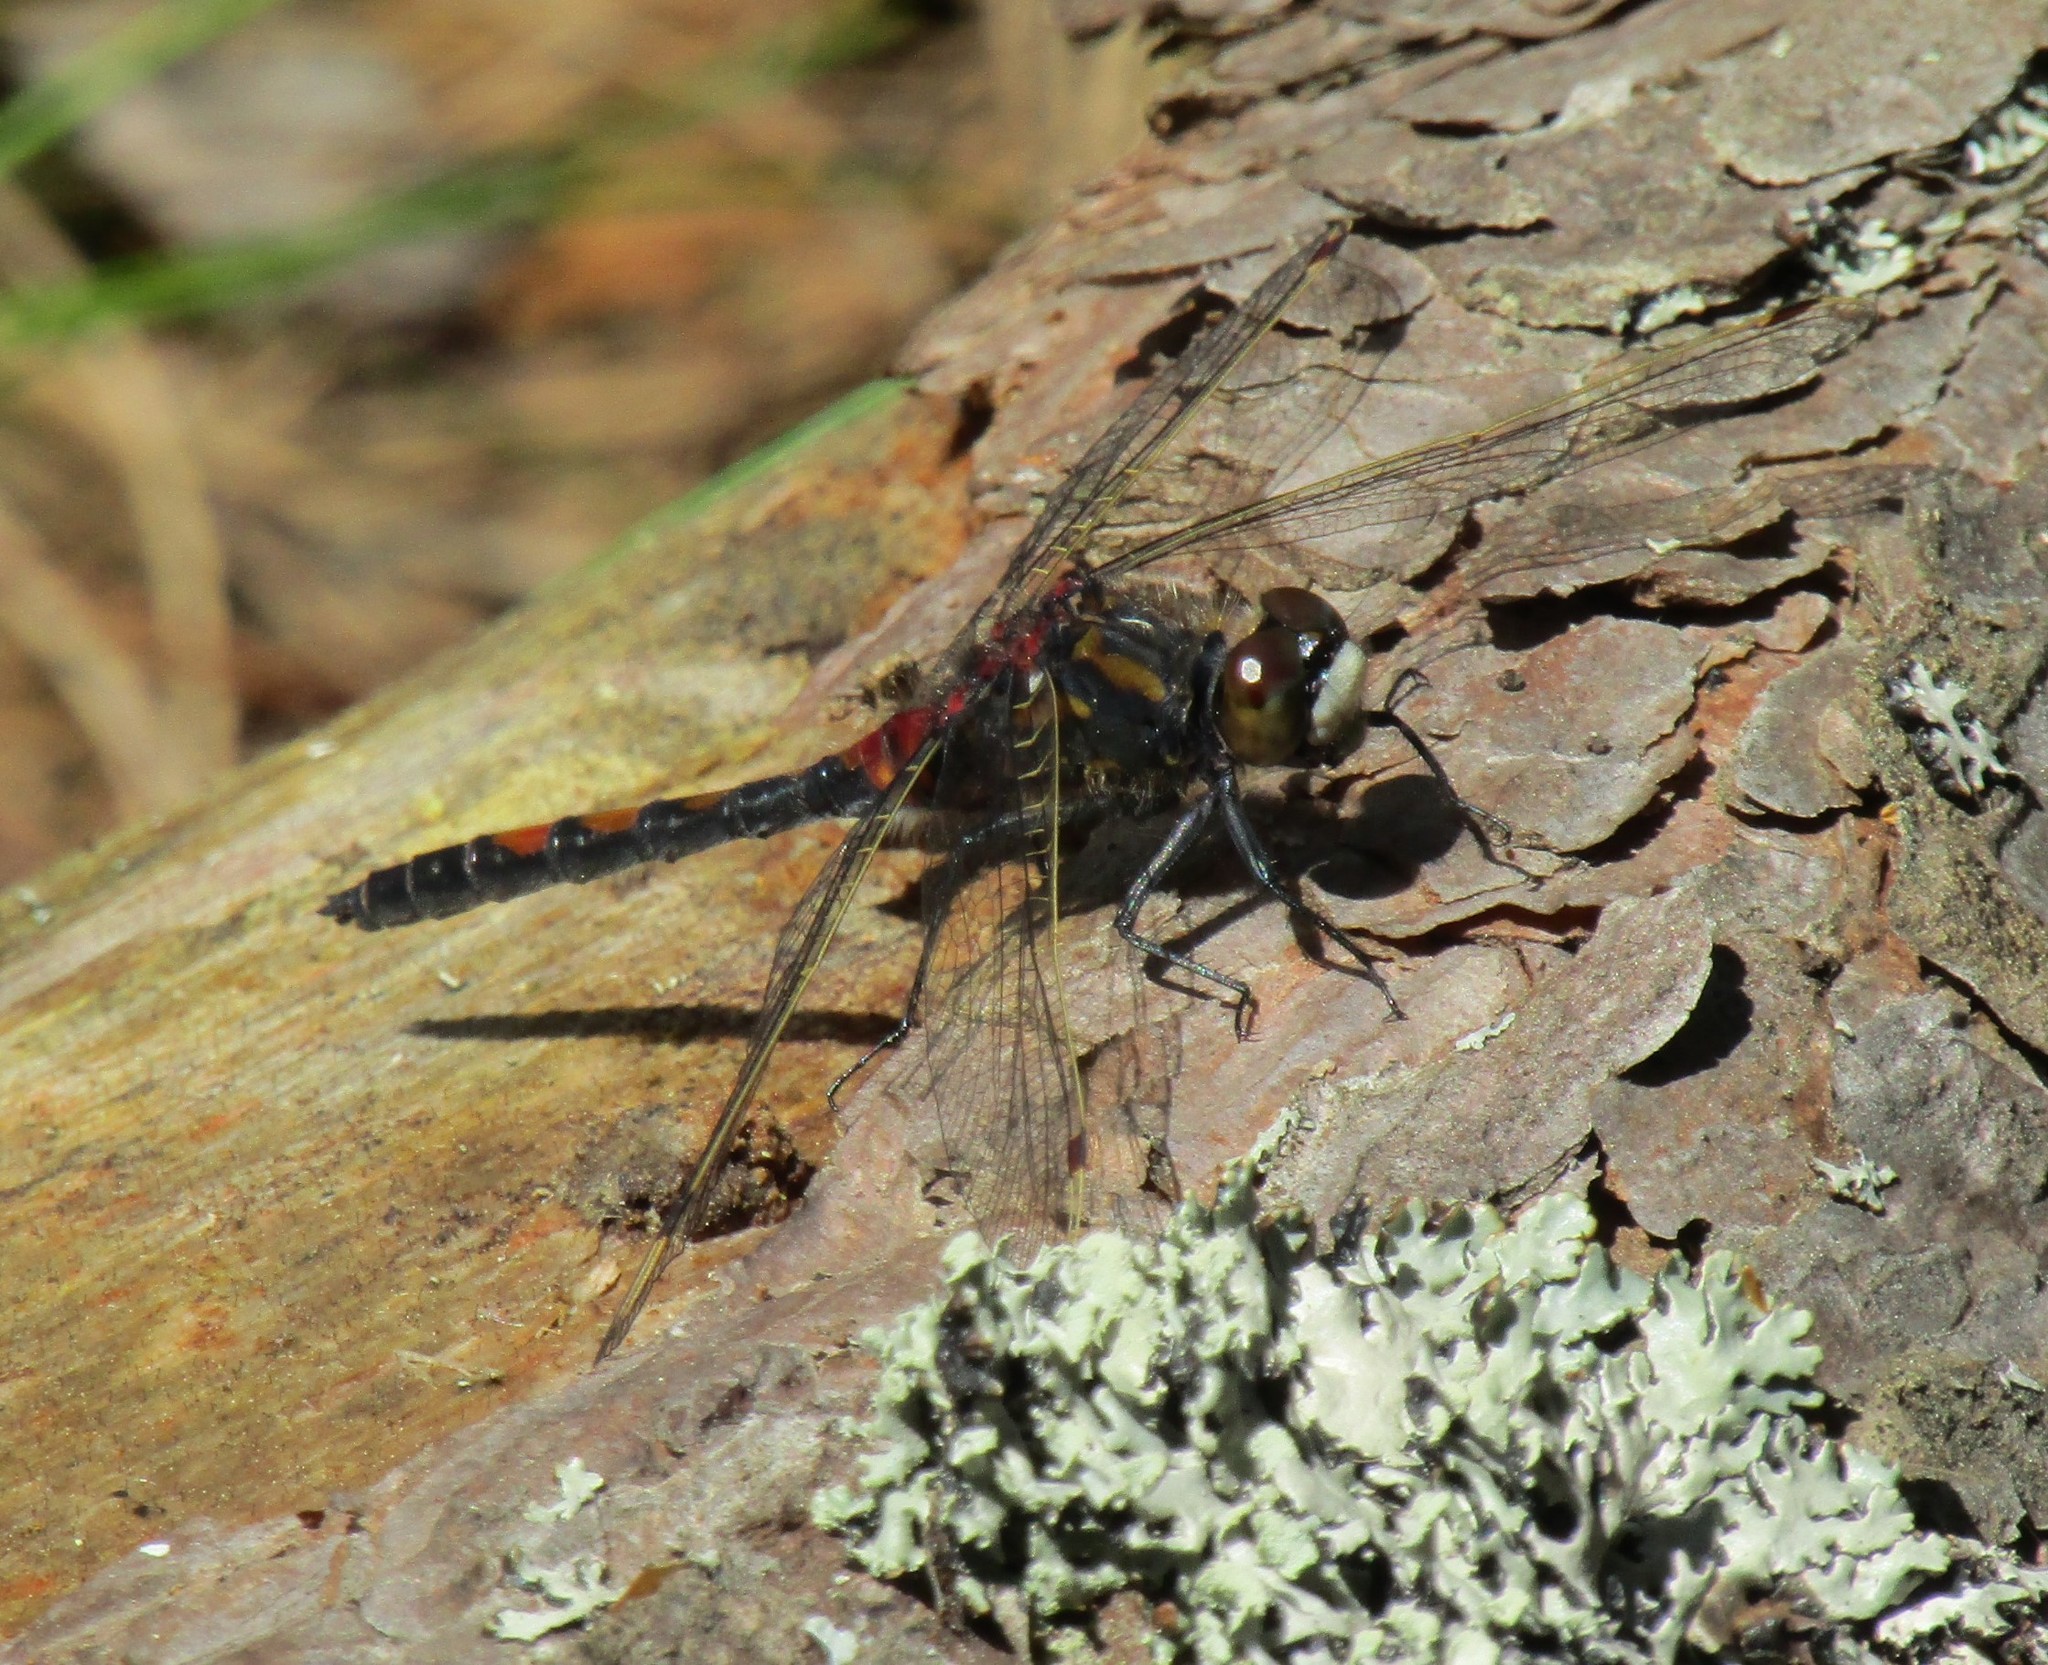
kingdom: Animalia
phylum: Arthropoda
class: Insecta
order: Odonata
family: Libellulidae
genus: Leucorrhinia
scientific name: Leucorrhinia rubicunda
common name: Ruby whiteface
